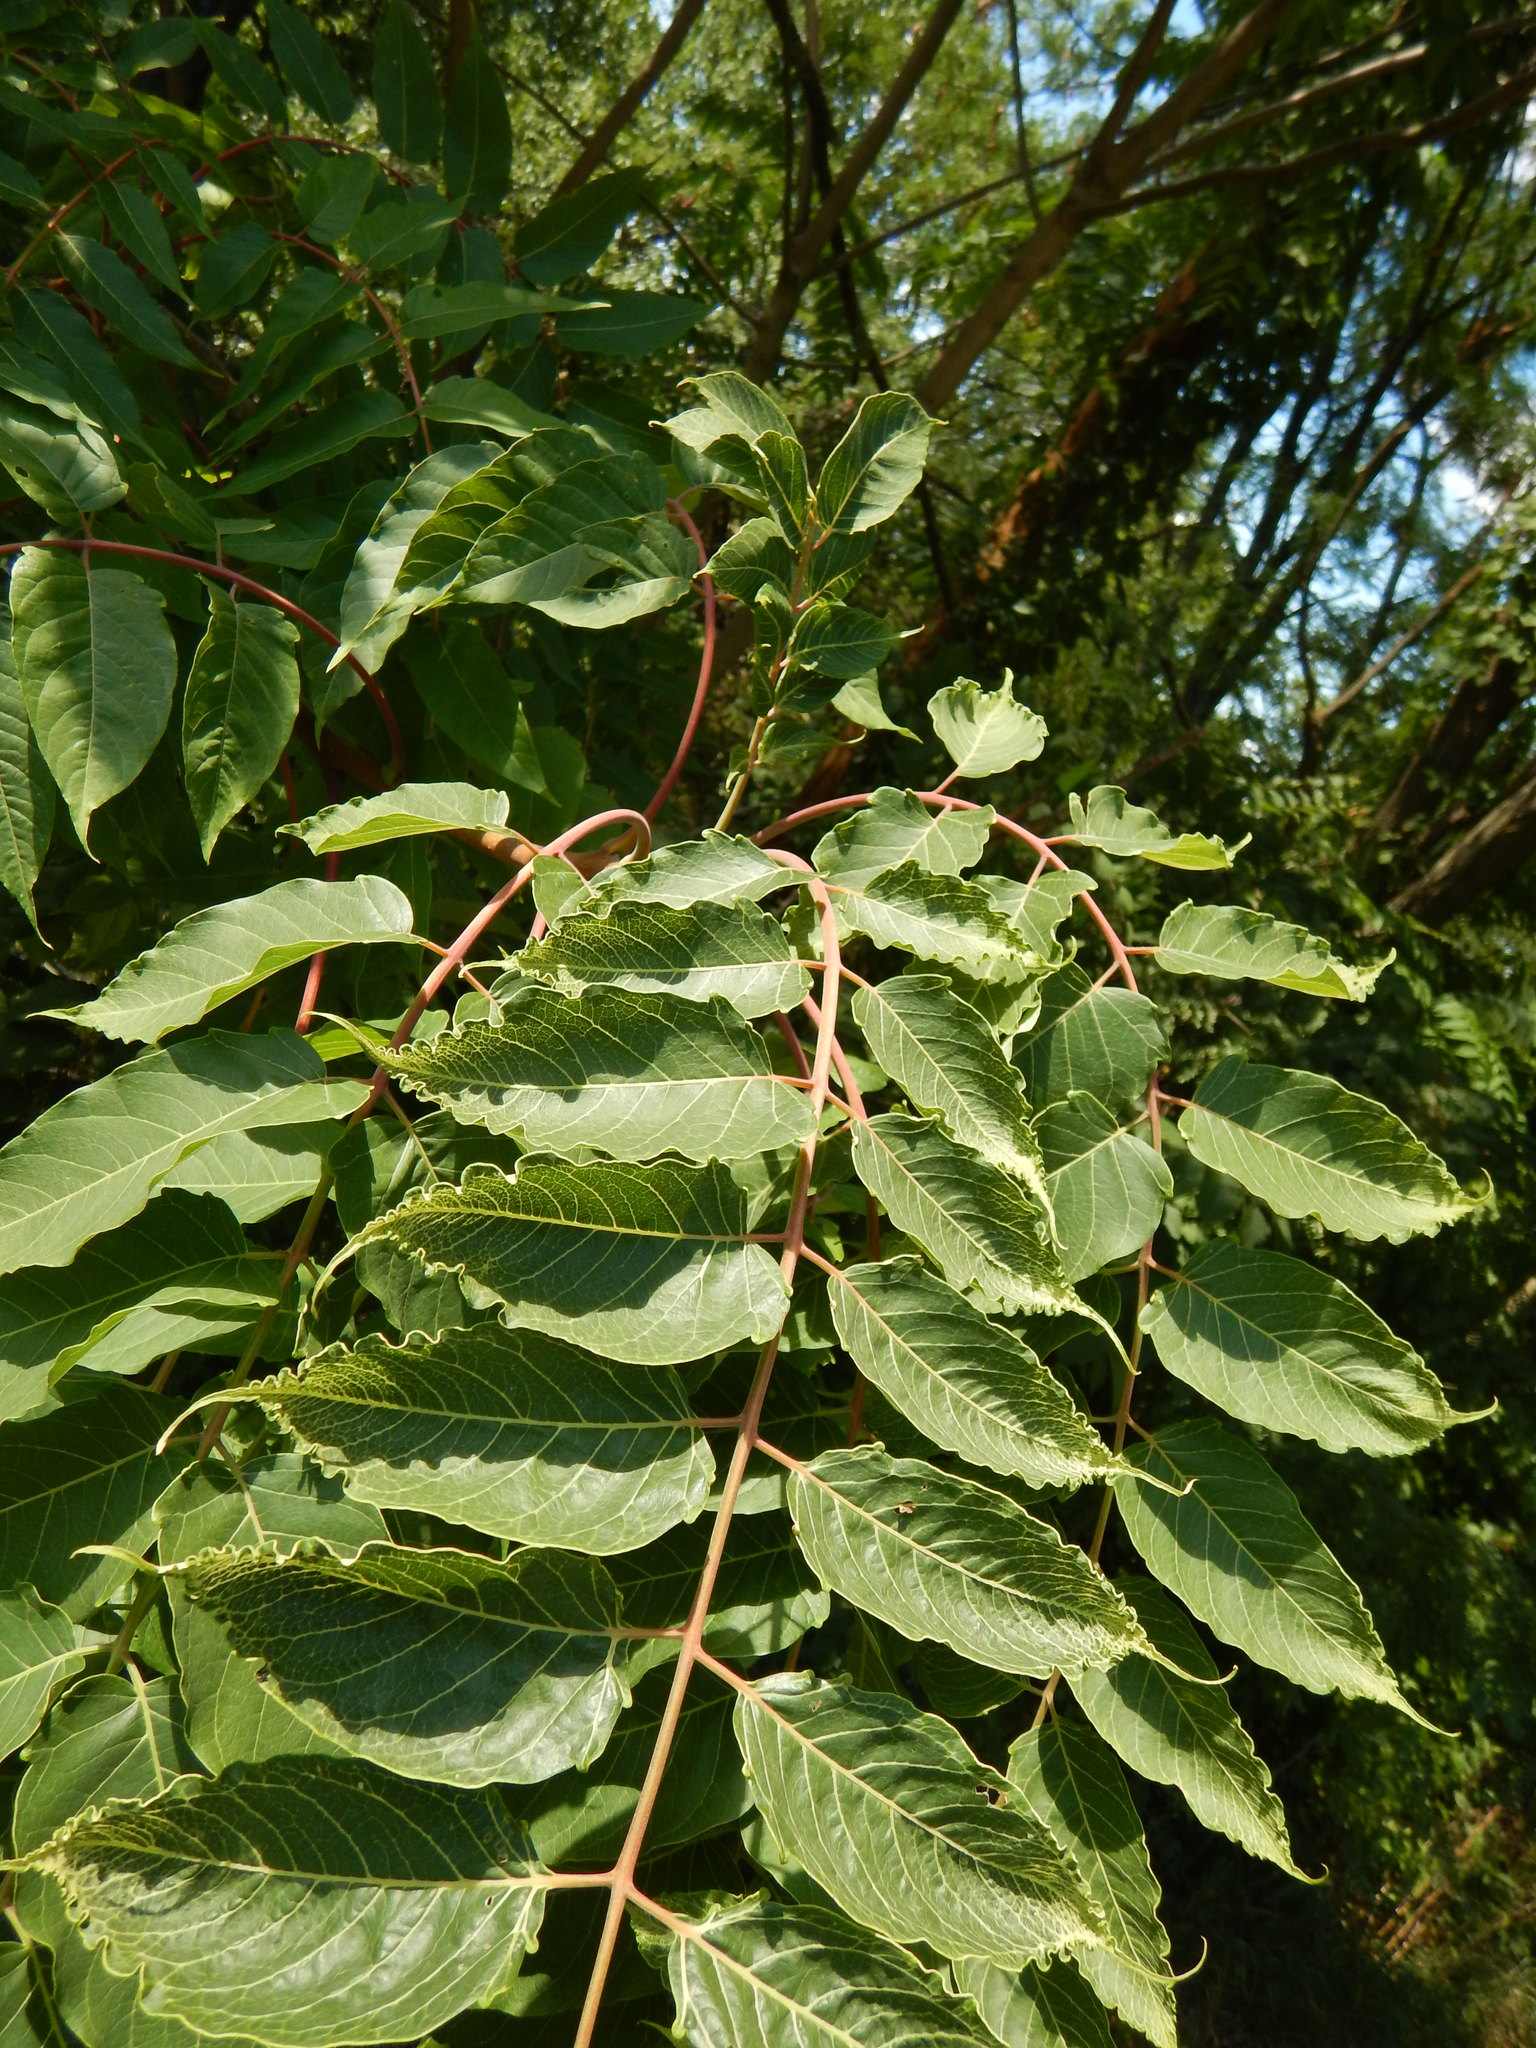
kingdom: Plantae
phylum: Tracheophyta
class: Magnoliopsida
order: Sapindales
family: Simaroubaceae
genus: Ailanthus
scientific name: Ailanthus altissima
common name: Tree-of-heaven
